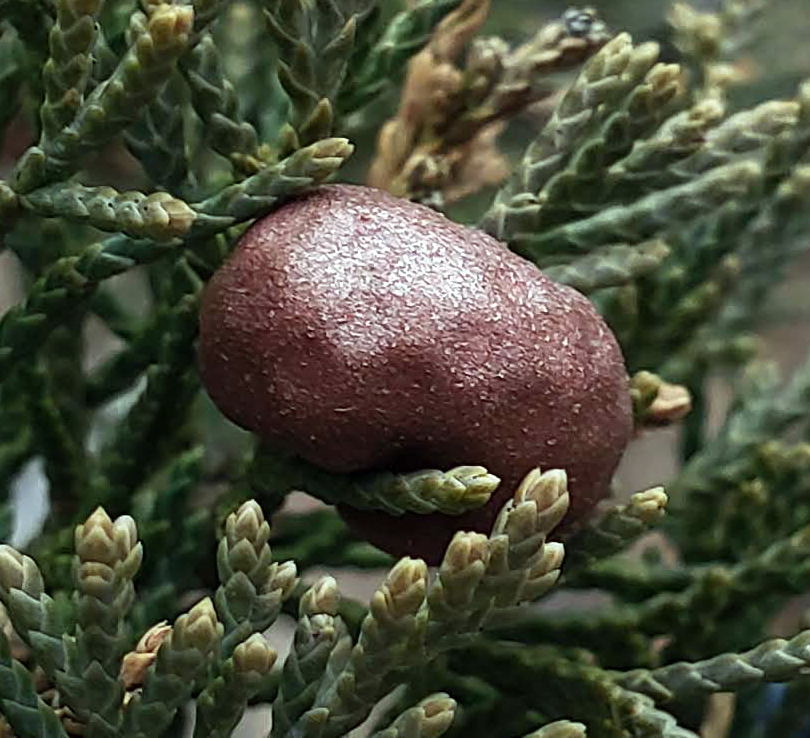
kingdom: Fungi
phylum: Basidiomycota
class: Pucciniomycetes
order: Pucciniales
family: Gymnosporangiaceae
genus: Gymnosporangium
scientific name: Gymnosporangium juniperi-virginianae
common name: Juniper-apple rust
